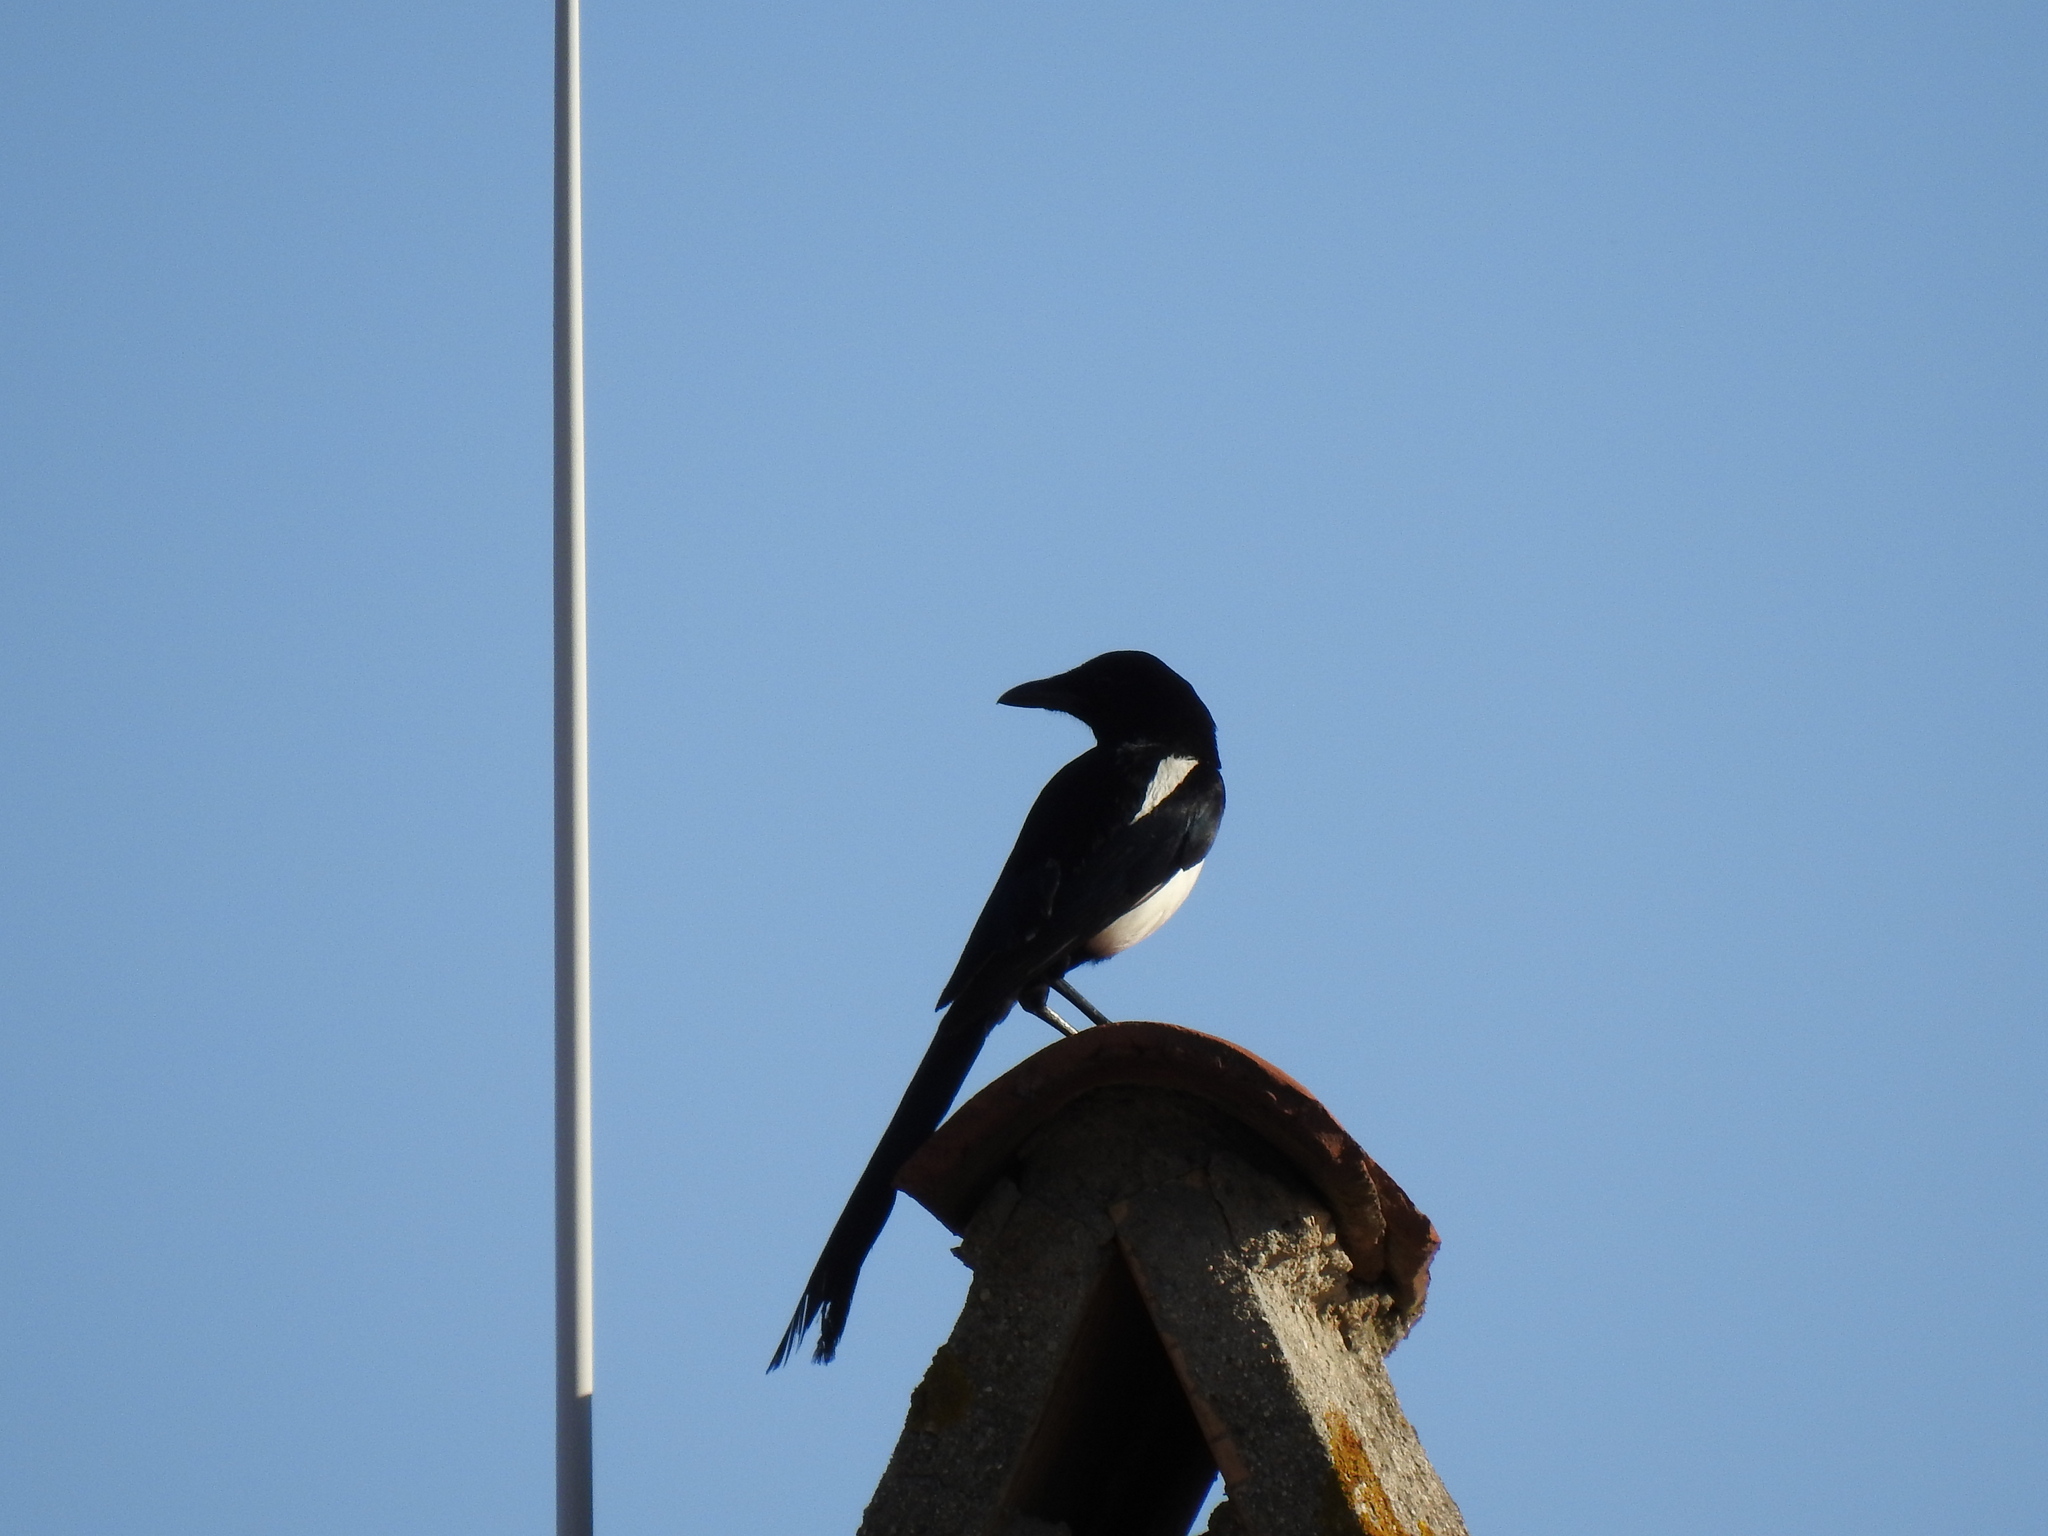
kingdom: Animalia
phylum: Chordata
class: Aves
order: Passeriformes
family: Corvidae
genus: Pica
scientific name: Pica pica
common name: Eurasian magpie
